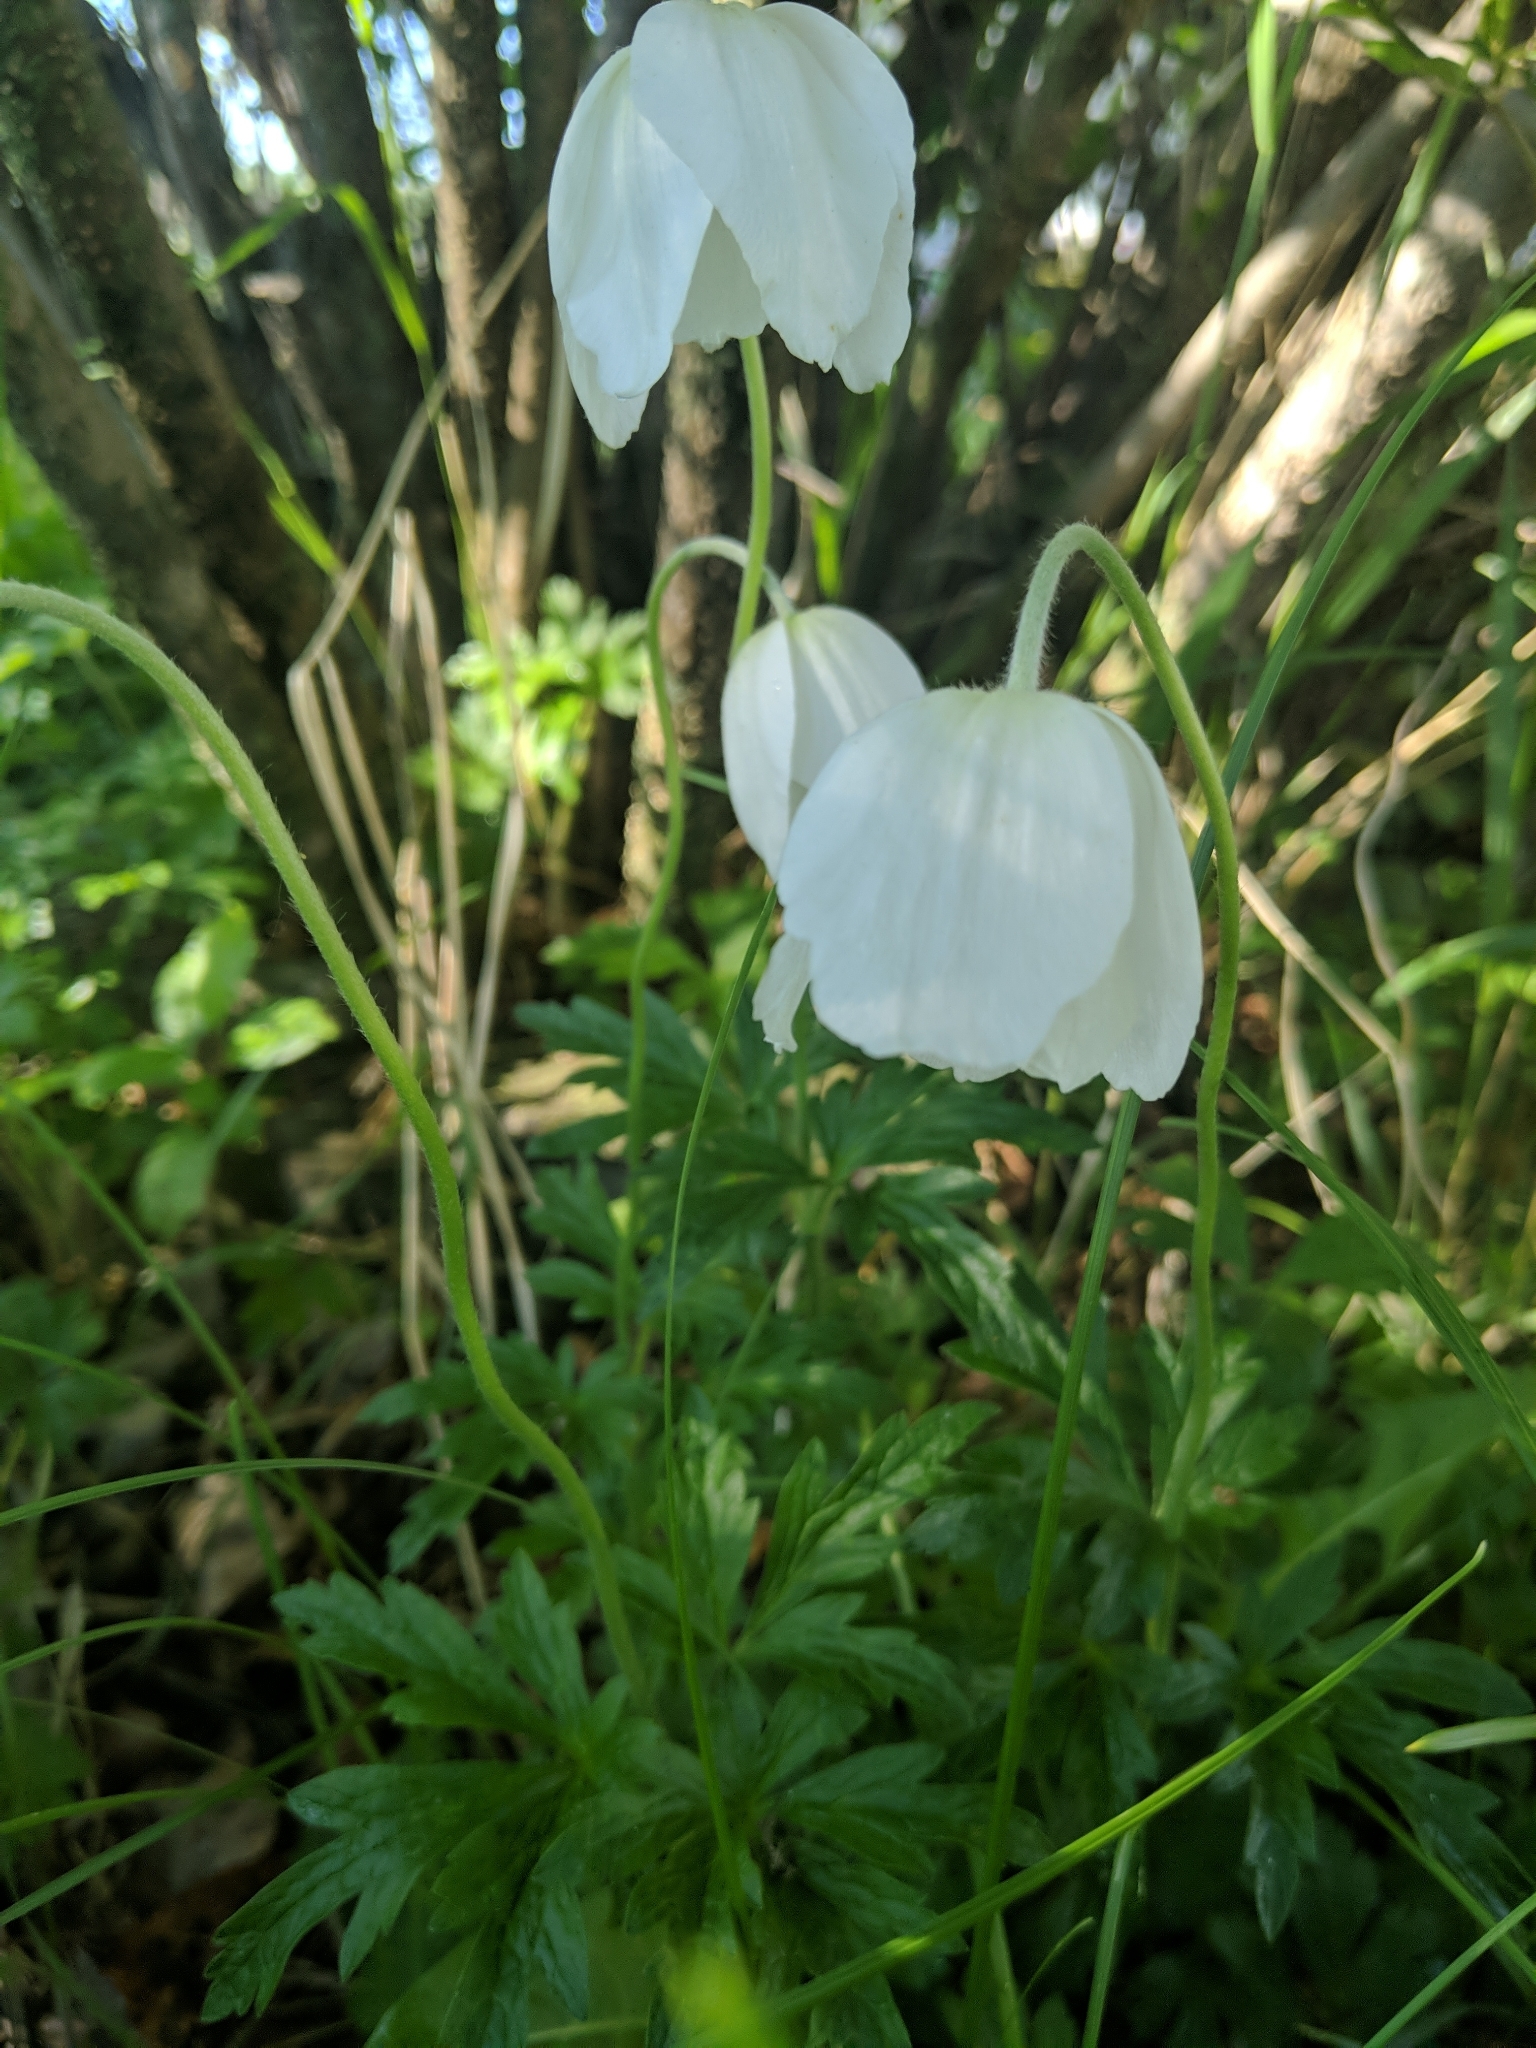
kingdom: Plantae
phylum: Tracheophyta
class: Magnoliopsida
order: Ranunculales
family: Ranunculaceae
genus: Anemone
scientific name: Anemone sylvestris
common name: Snowdrop anemone
